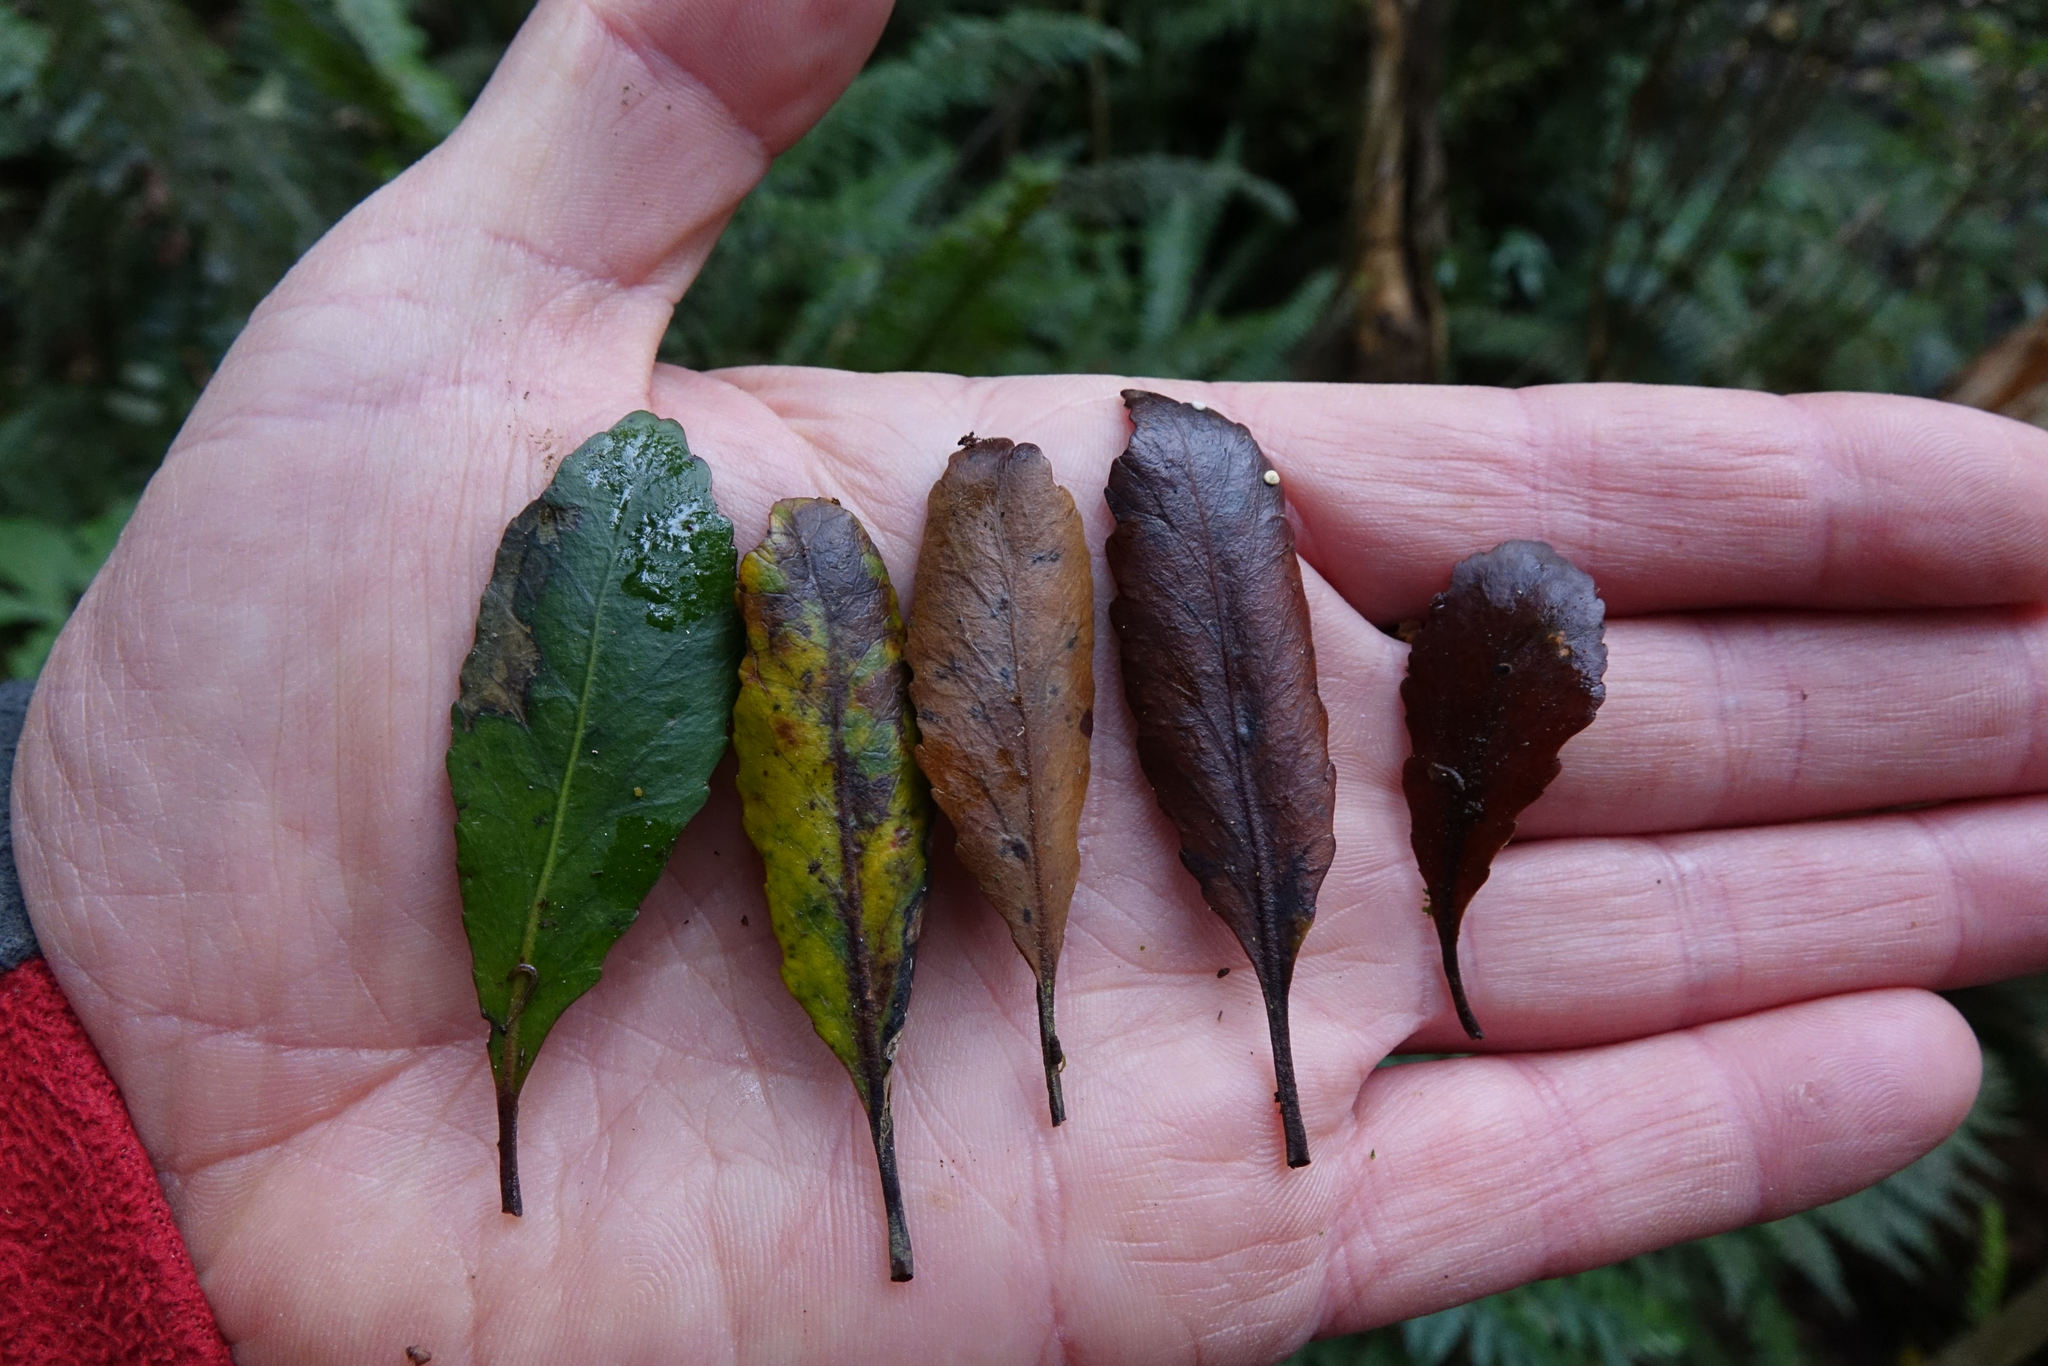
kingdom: Plantae
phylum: Tracheophyta
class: Magnoliopsida
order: Oxalidales
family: Elaeocarpaceae
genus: Elaeocarpus
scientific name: Elaeocarpus hookerianus
